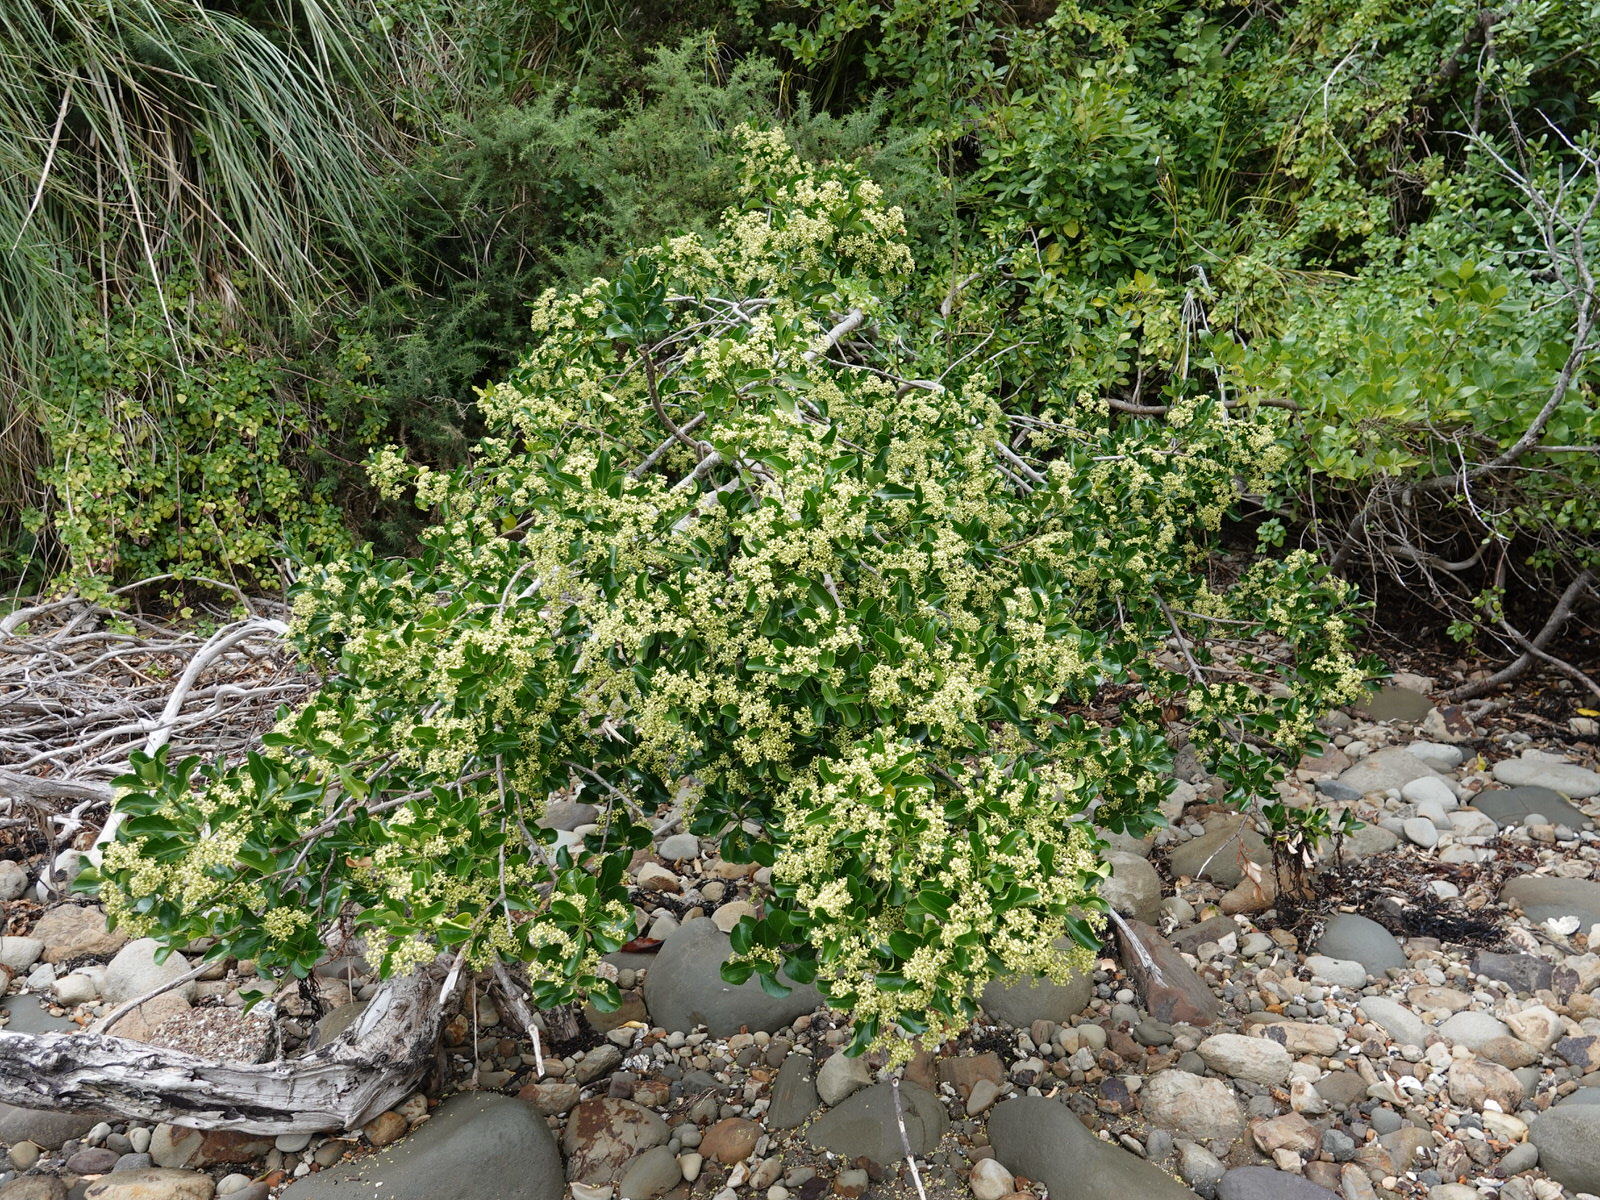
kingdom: Plantae
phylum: Tracheophyta
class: Magnoliopsida
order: Celastrales
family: Celastraceae
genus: Euonymus
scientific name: Euonymus japonicus
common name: Japanese spindletree
